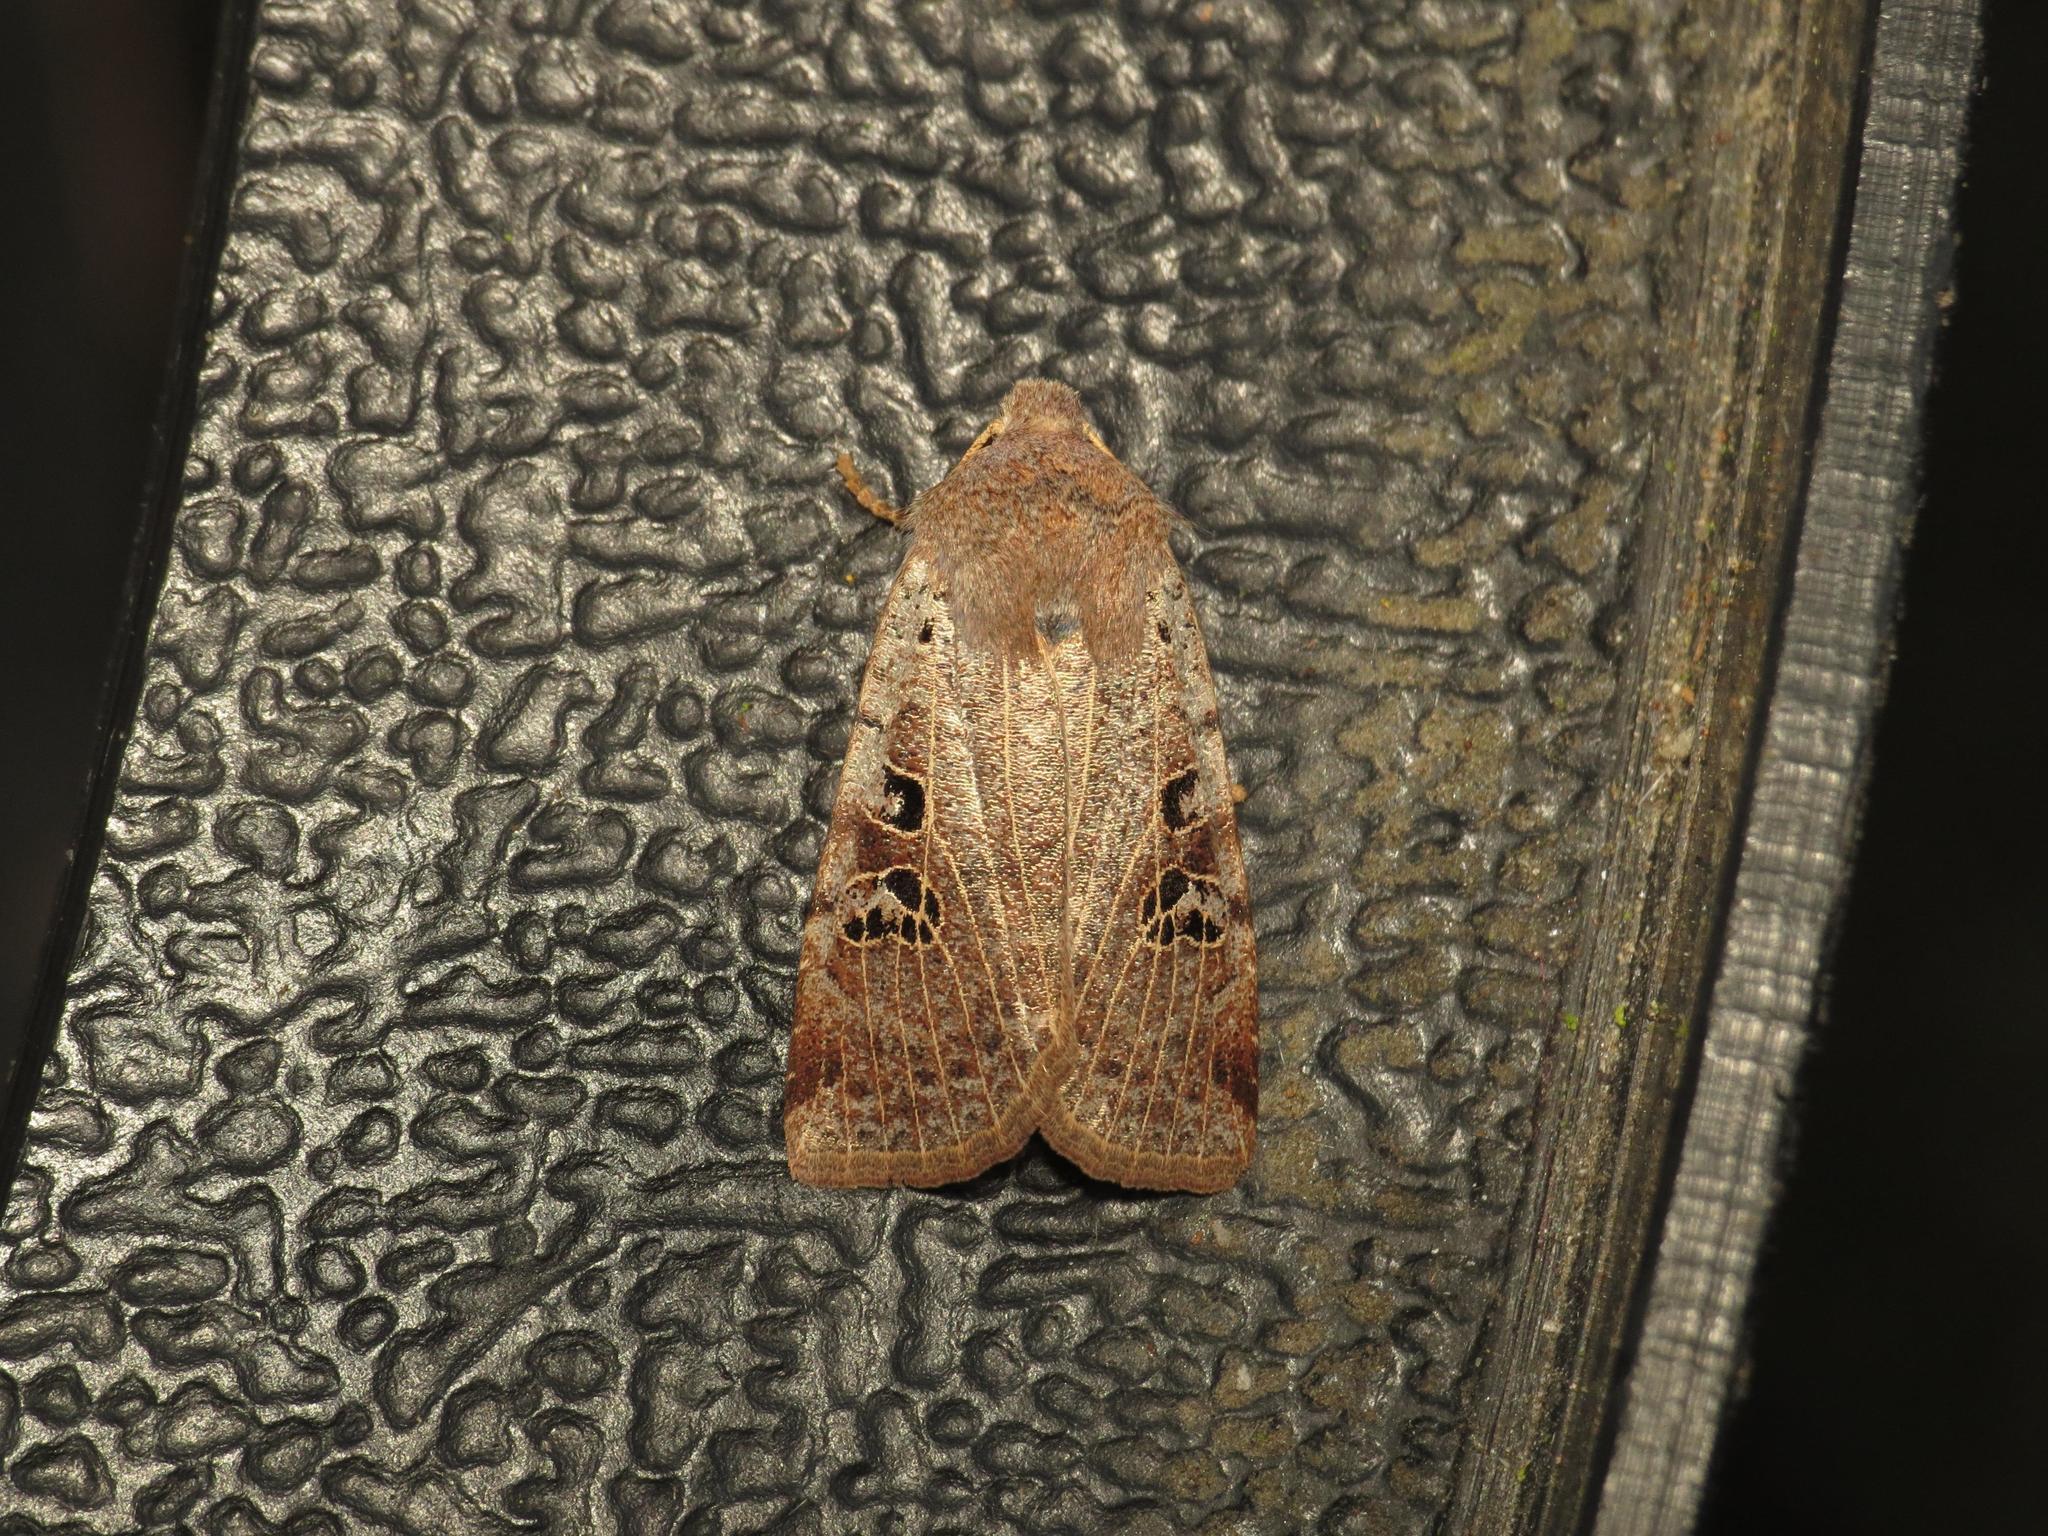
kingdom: Animalia
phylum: Arthropoda
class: Insecta
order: Lepidoptera
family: Noctuidae
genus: Conistra
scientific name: Conistra rubiginosa
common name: Black-spotted chestnut
